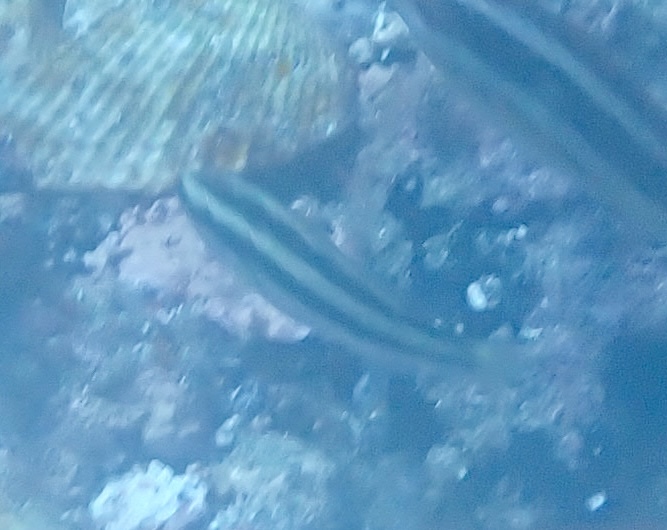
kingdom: Animalia
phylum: Chordata
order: Perciformes
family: Scaridae
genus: Scarus
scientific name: Scarus hoefleri
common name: Guinean parrotfish
